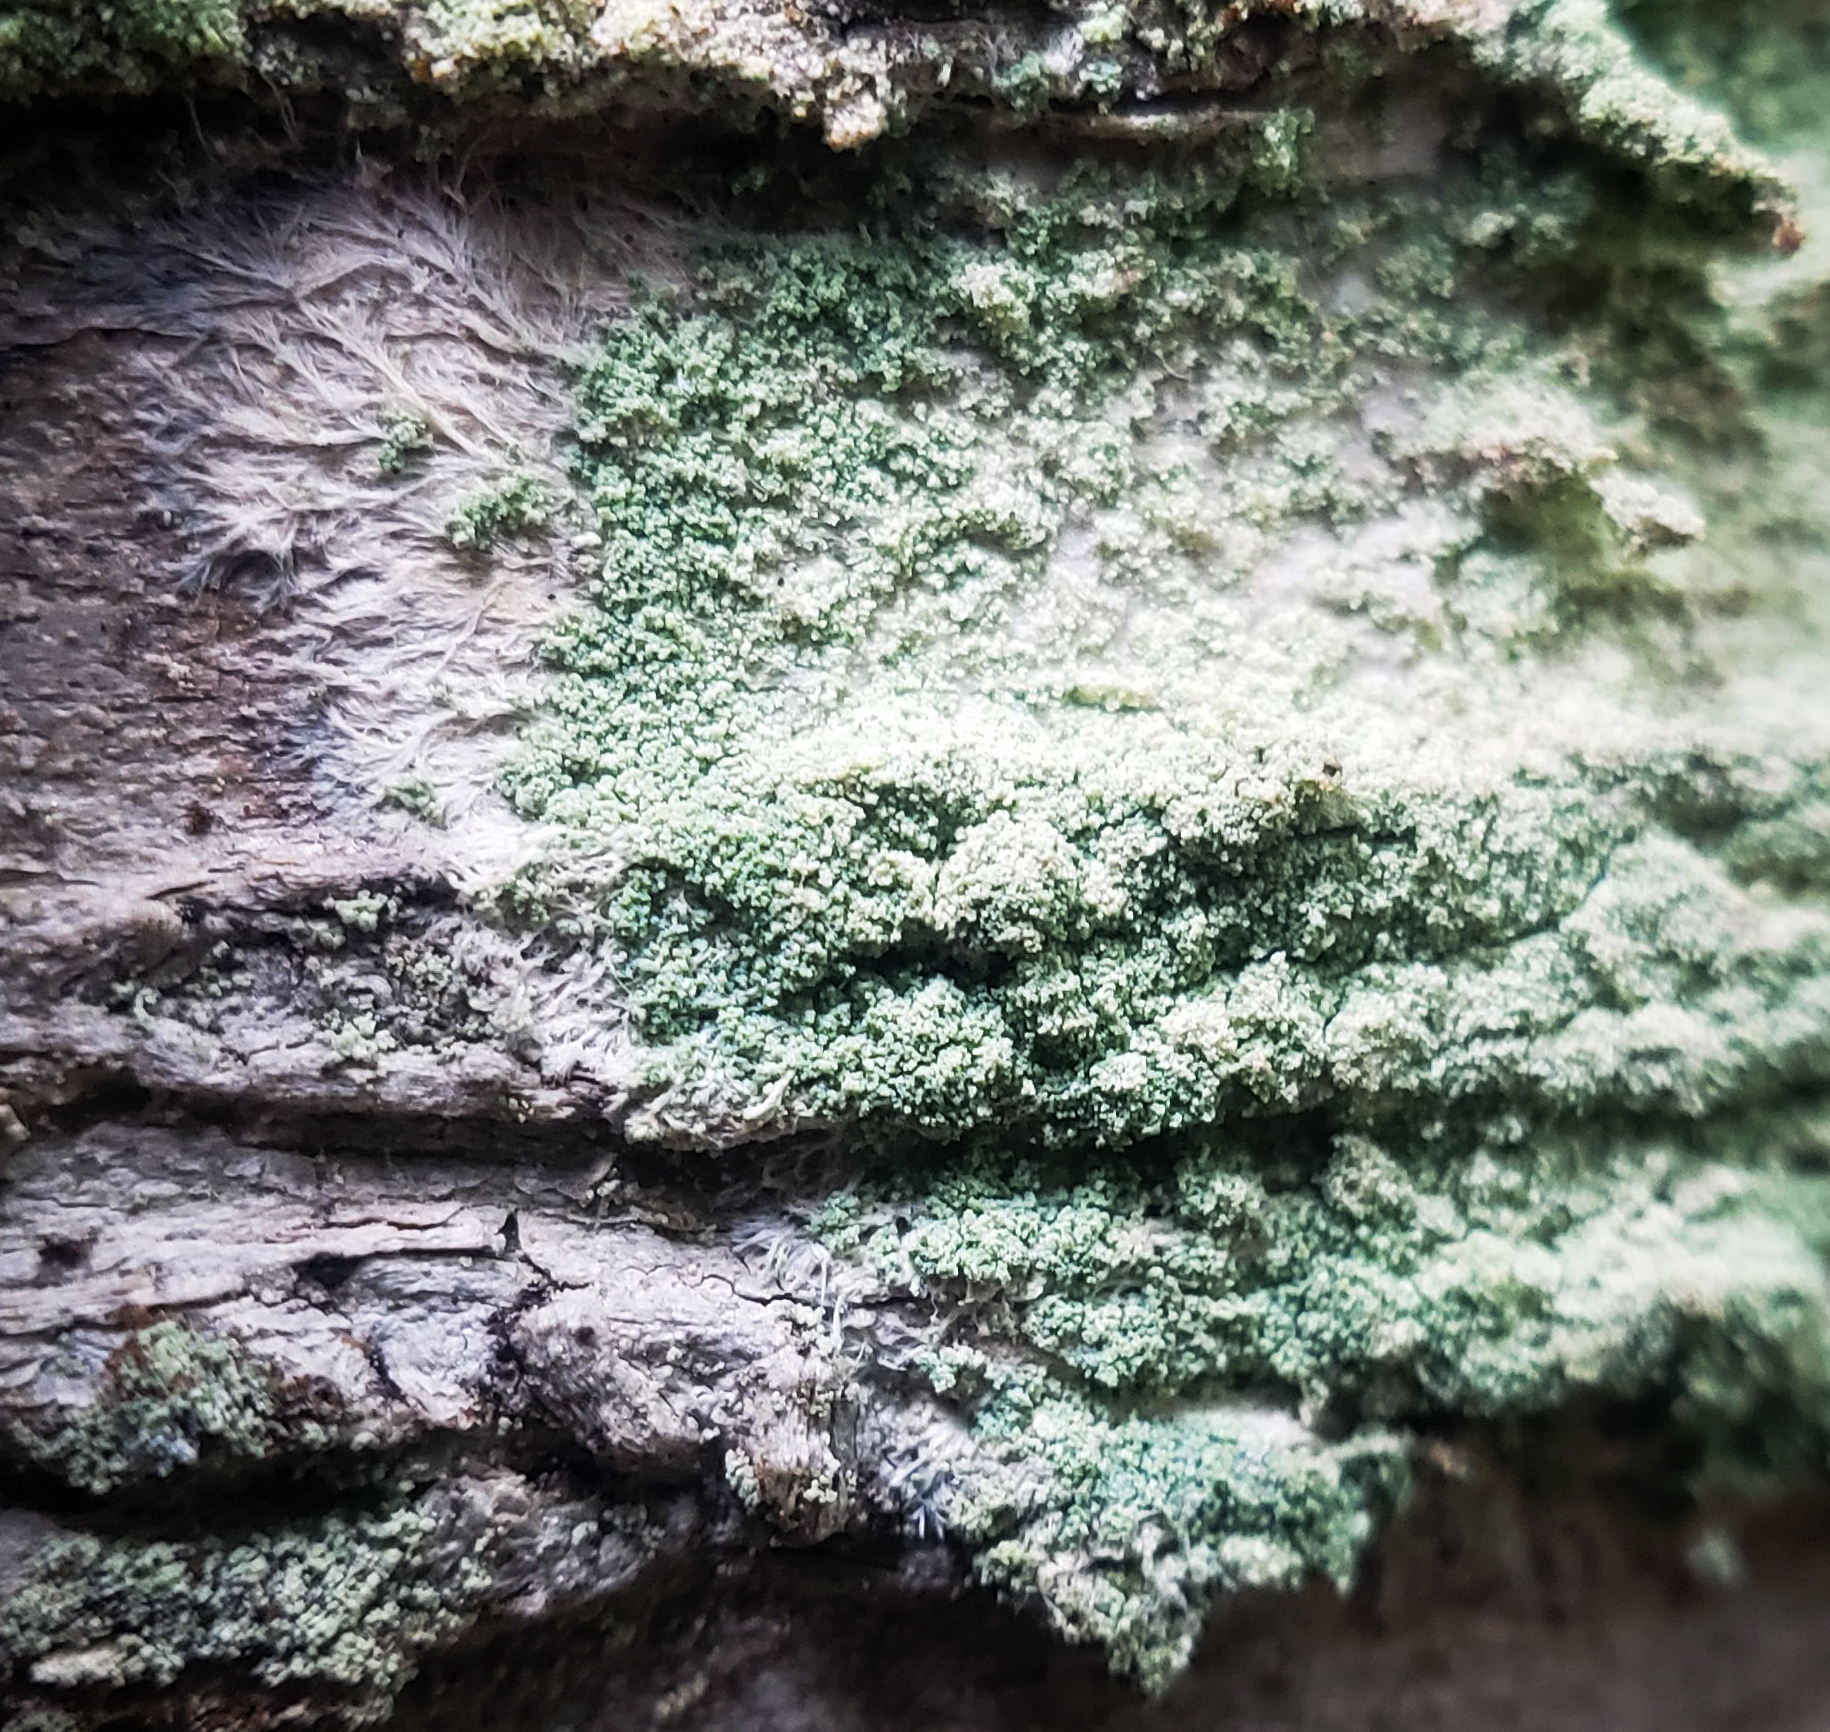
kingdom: Fungi
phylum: Ascomycota
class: Lecanoromycetes
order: Pertusariales
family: Pertusariaceae
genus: Verseghya
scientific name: Verseghya thysanophora
